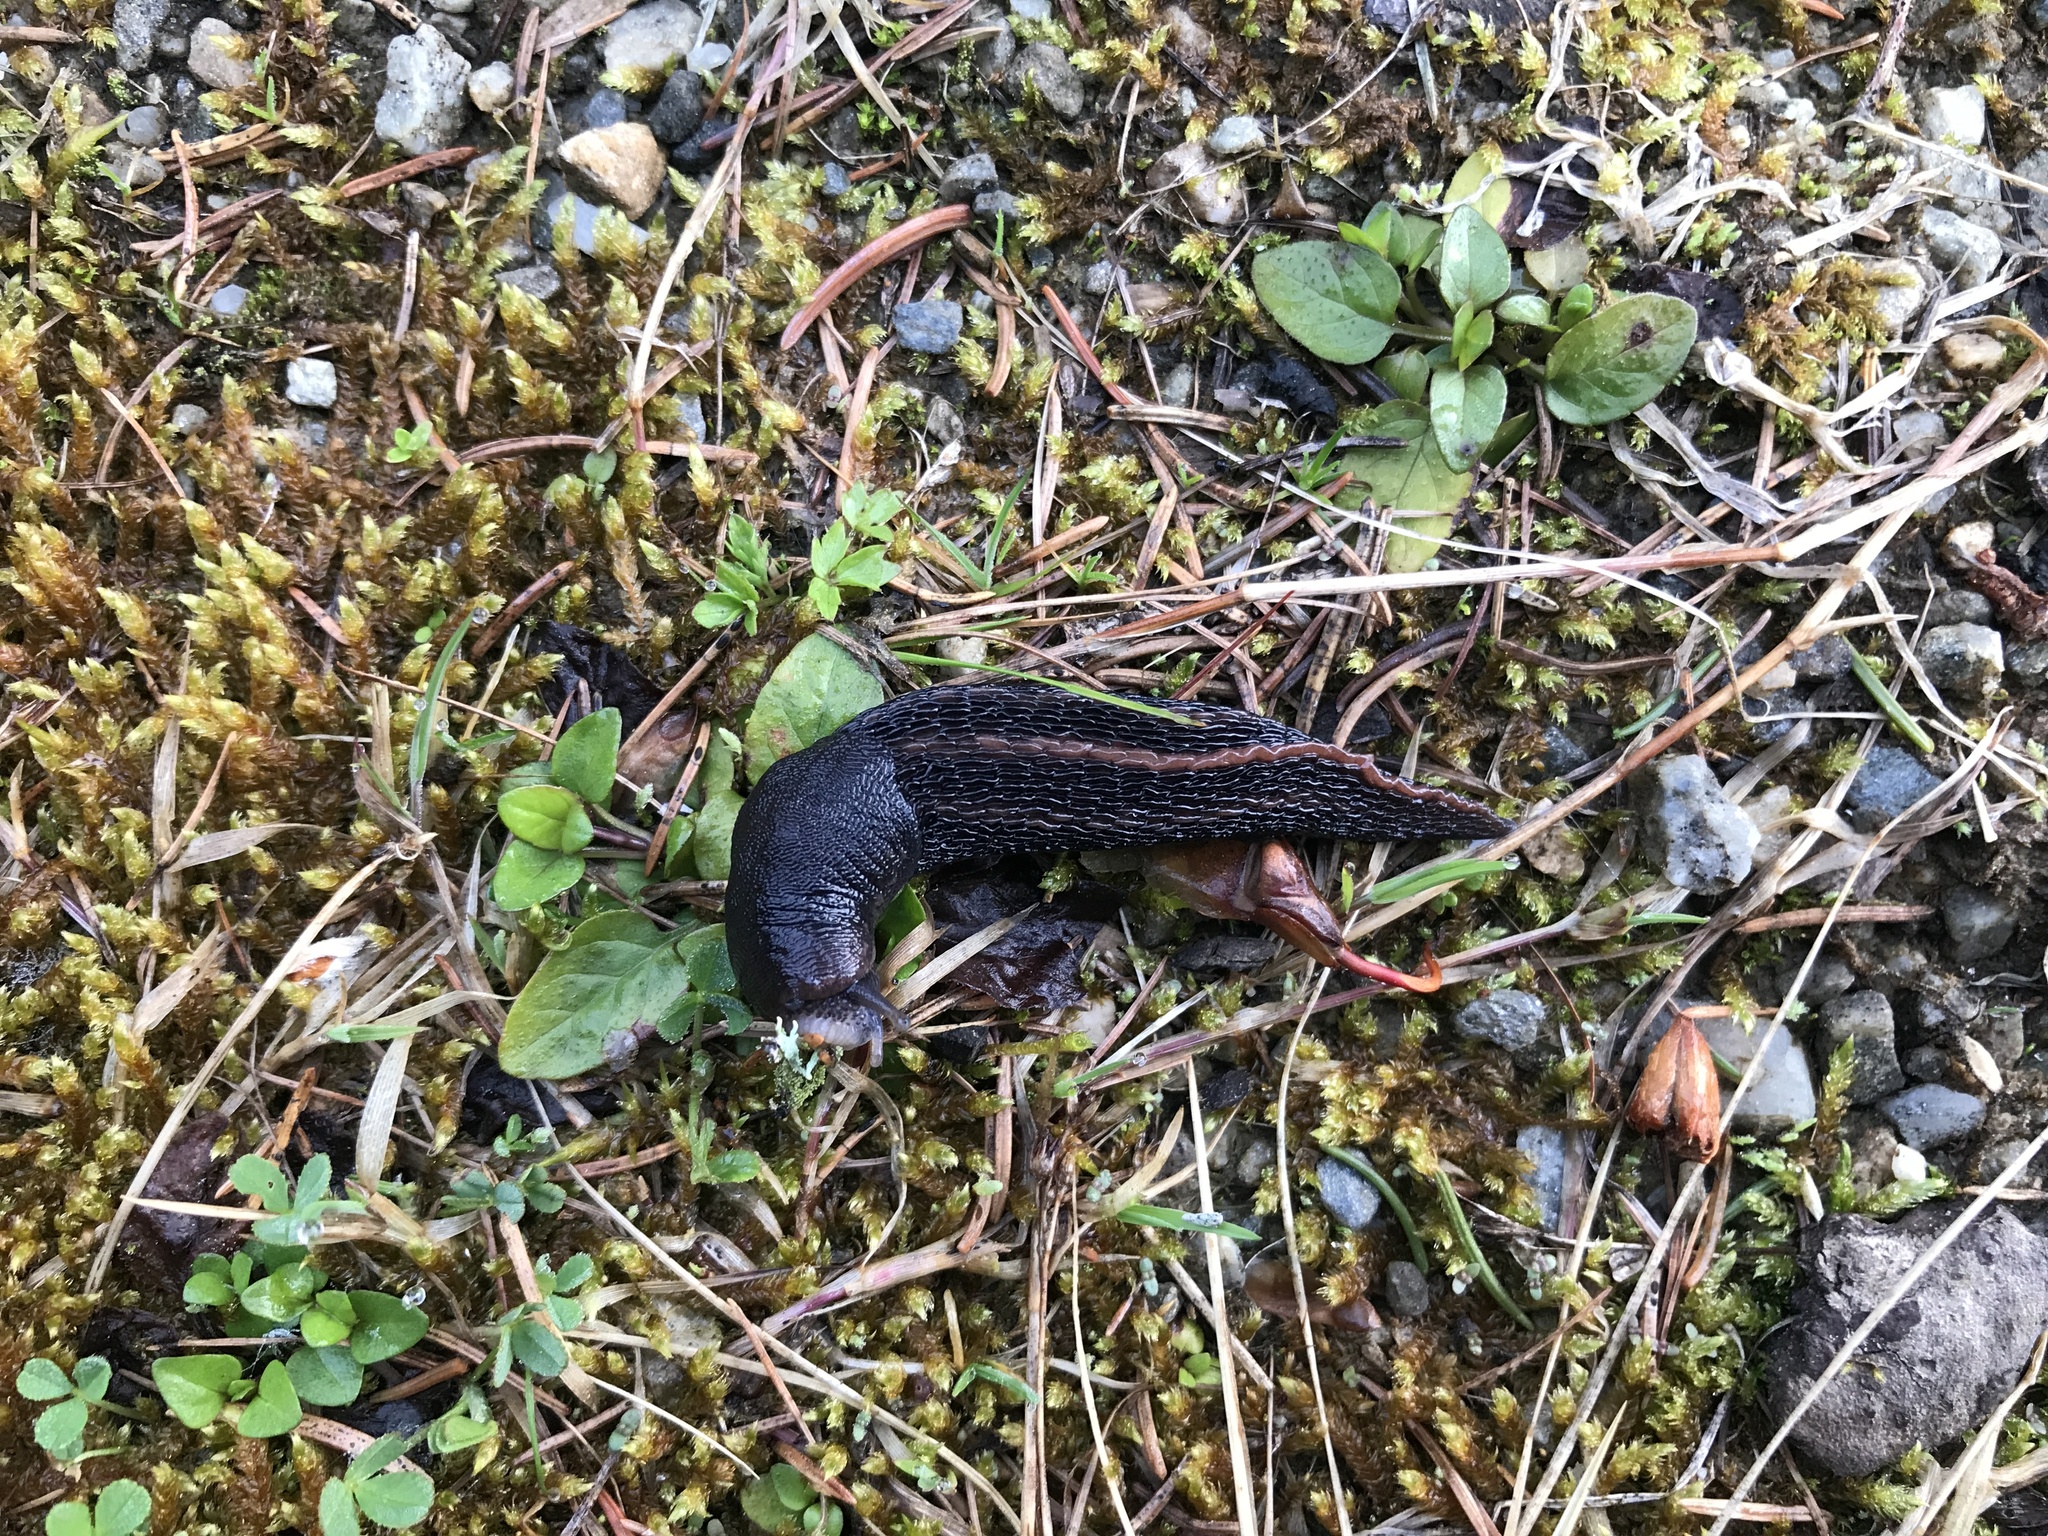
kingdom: Animalia
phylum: Mollusca
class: Gastropoda
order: Stylommatophora
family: Limacidae
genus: Limax
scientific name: Limax cinereoniger
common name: Ash-black slug
